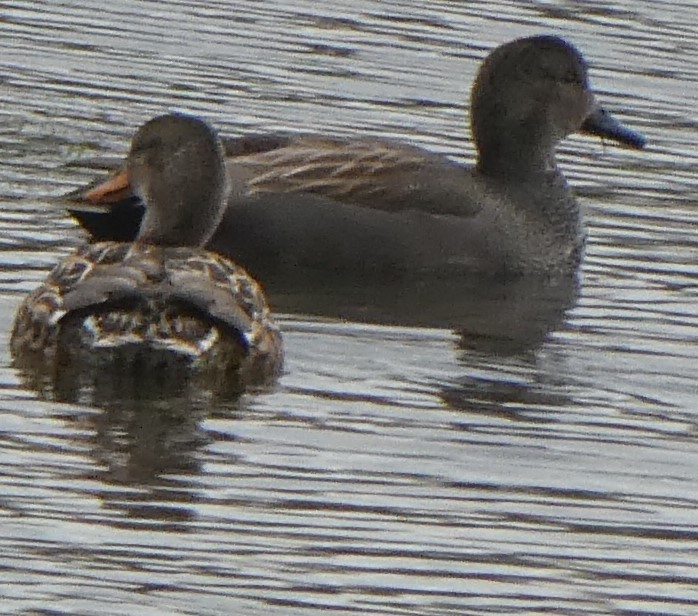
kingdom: Animalia
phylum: Chordata
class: Aves
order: Anseriformes
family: Anatidae
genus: Mareca
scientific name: Mareca strepera
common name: Gadwall
